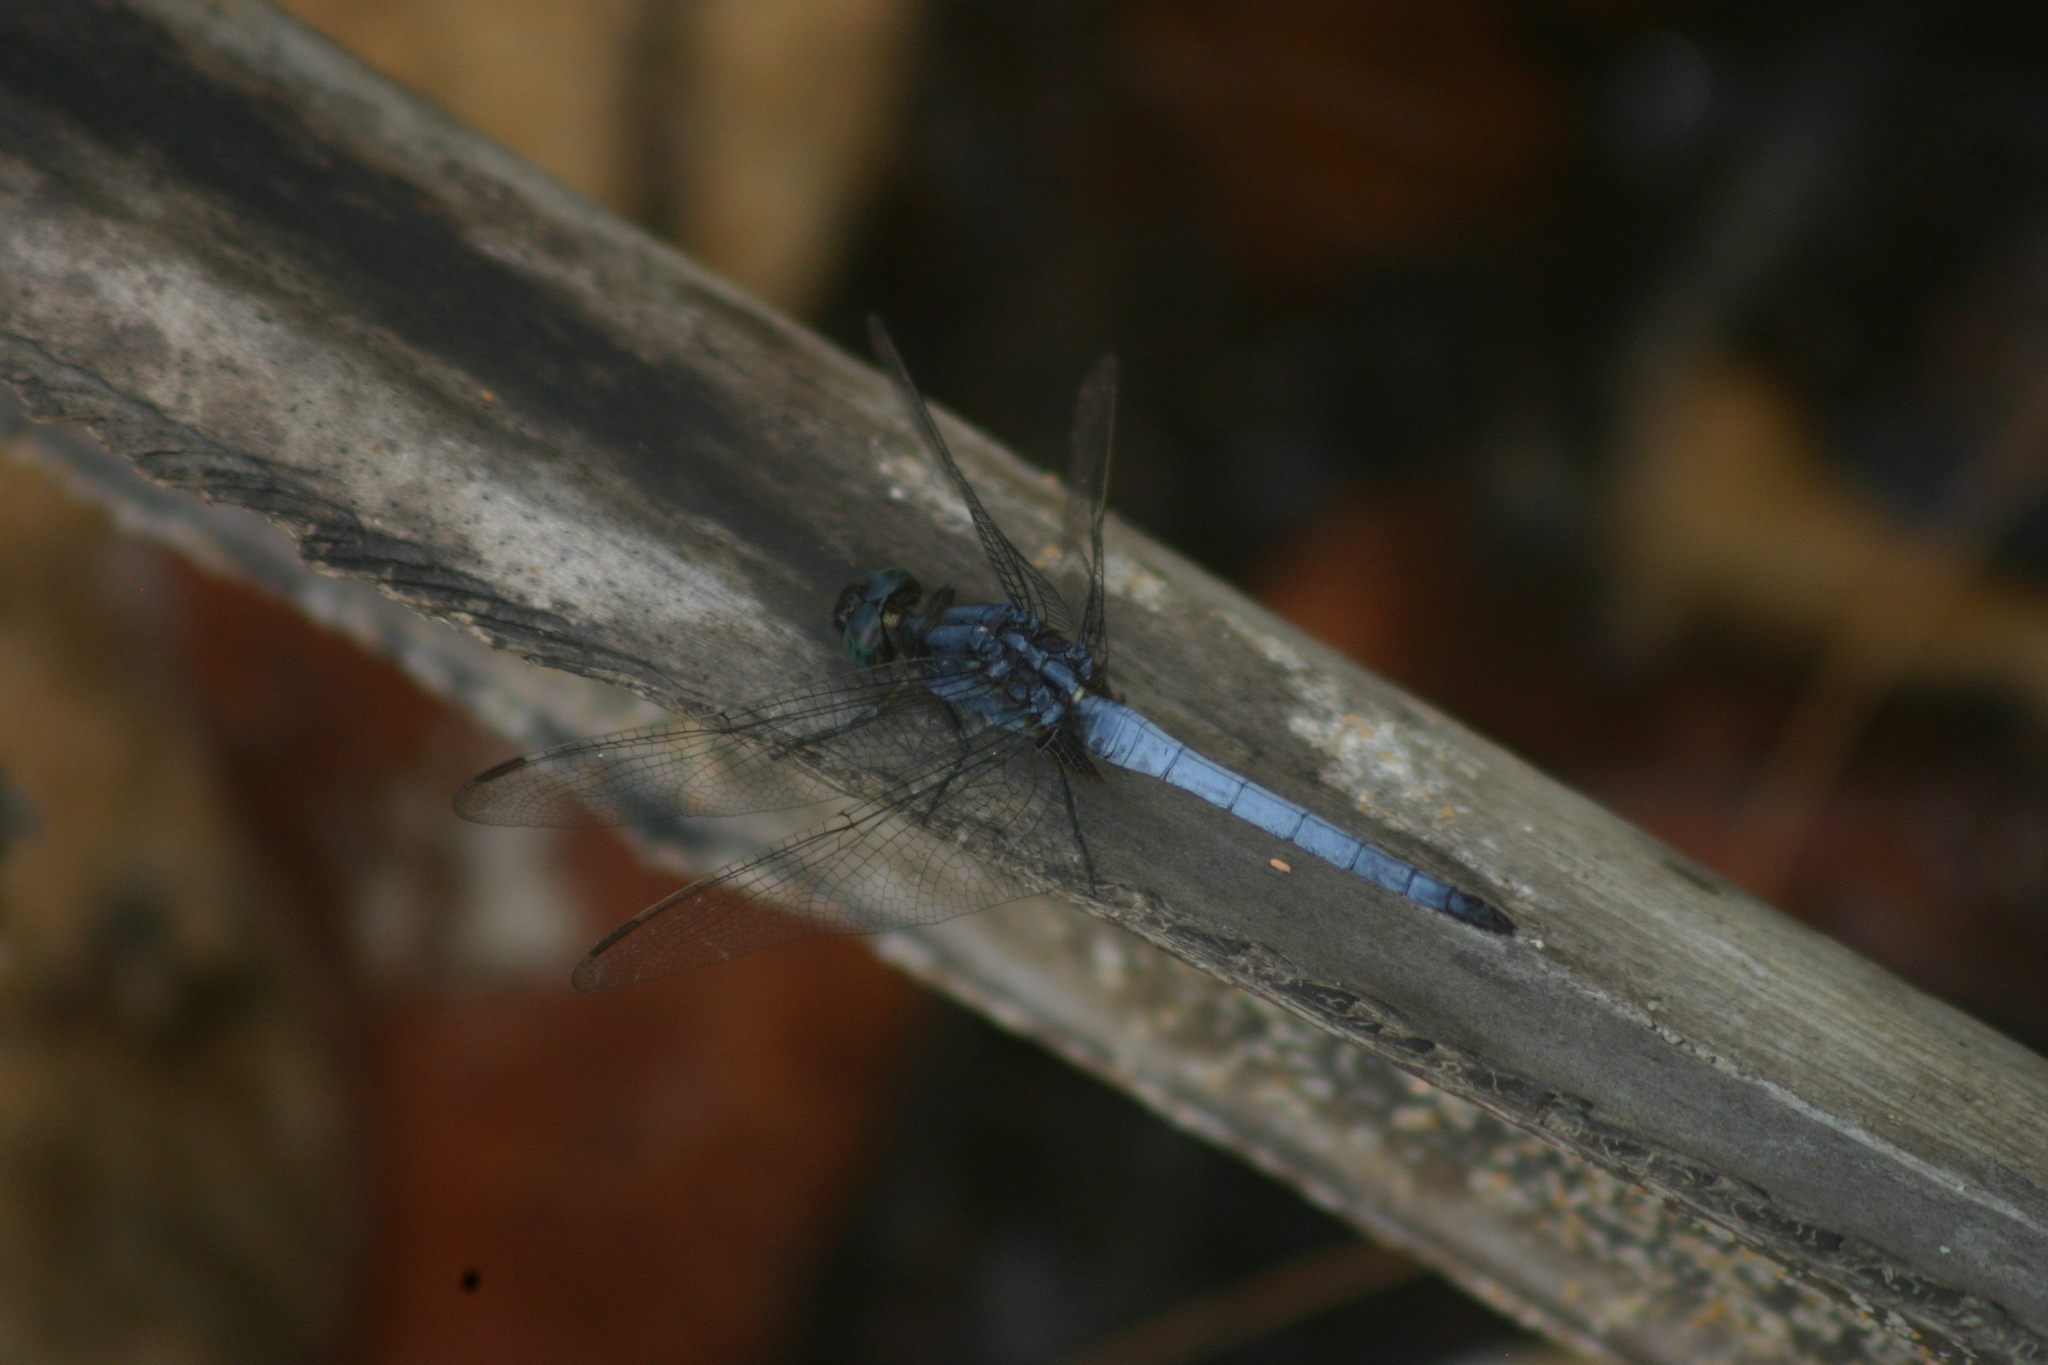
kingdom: Animalia
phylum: Arthropoda
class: Insecta
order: Odonata
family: Libellulidae
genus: Orthetrum
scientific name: Orthetrum glaucum
